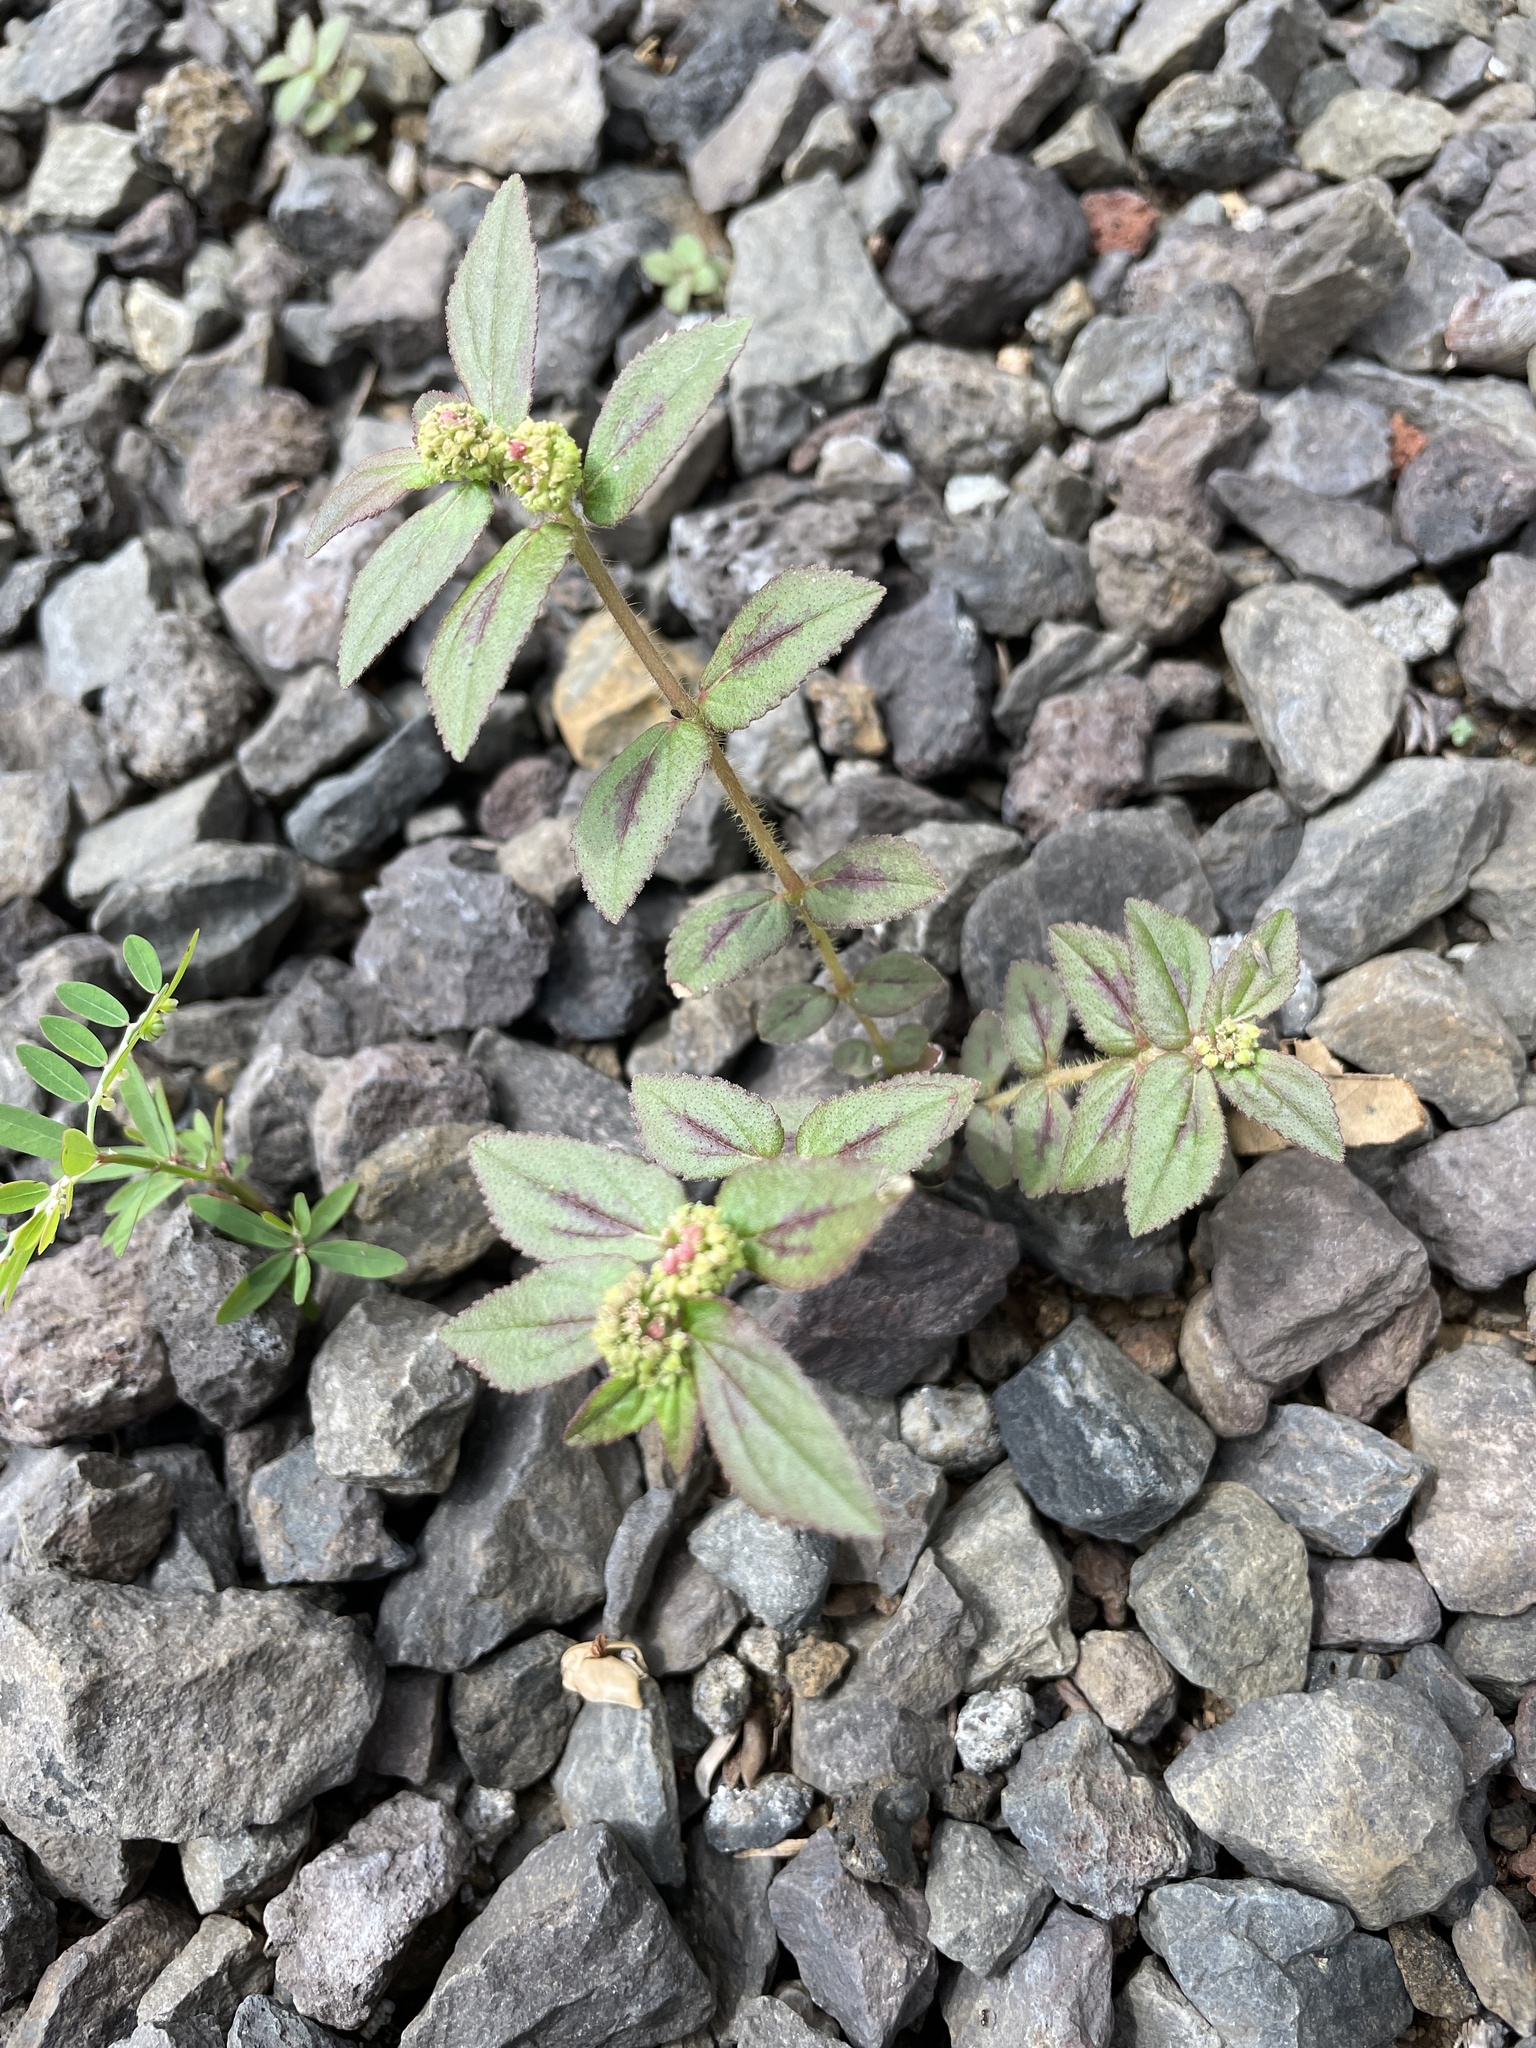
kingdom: Plantae
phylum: Tracheophyta
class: Magnoliopsida
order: Malpighiales
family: Euphorbiaceae
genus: Euphorbia
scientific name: Euphorbia hirta
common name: Pillpod sandmat
